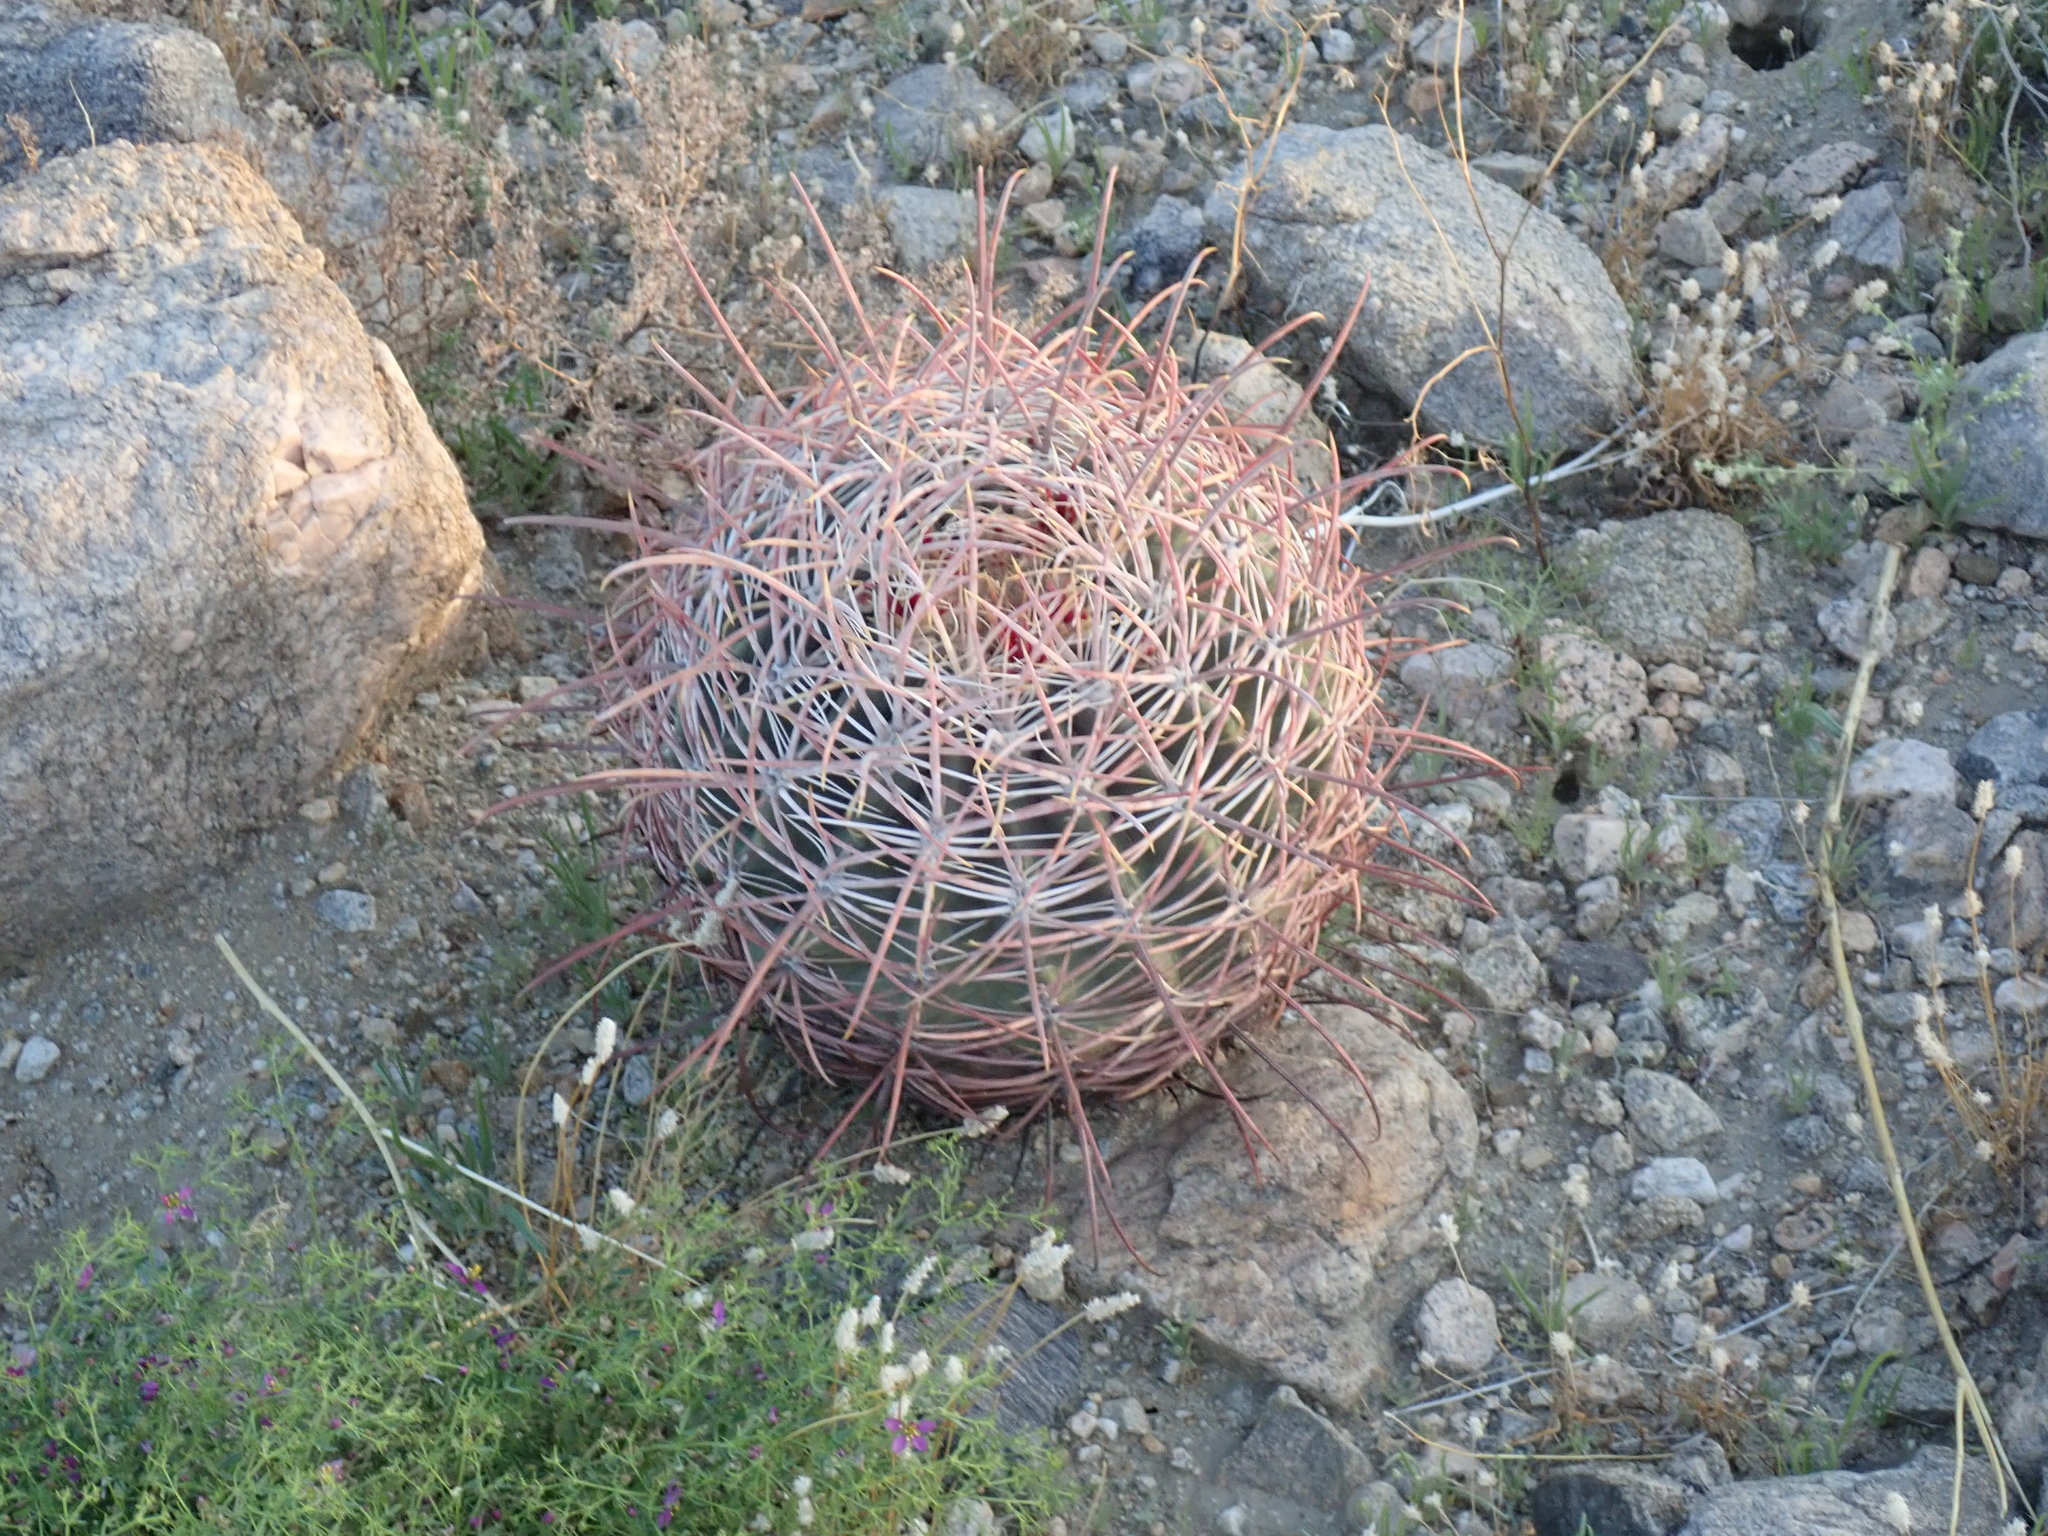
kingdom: Plantae
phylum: Tracheophyta
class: Magnoliopsida
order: Caryophyllales
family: Cactaceae
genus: Ferocactus
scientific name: Ferocactus cylindraceus
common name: California barrel cactus
